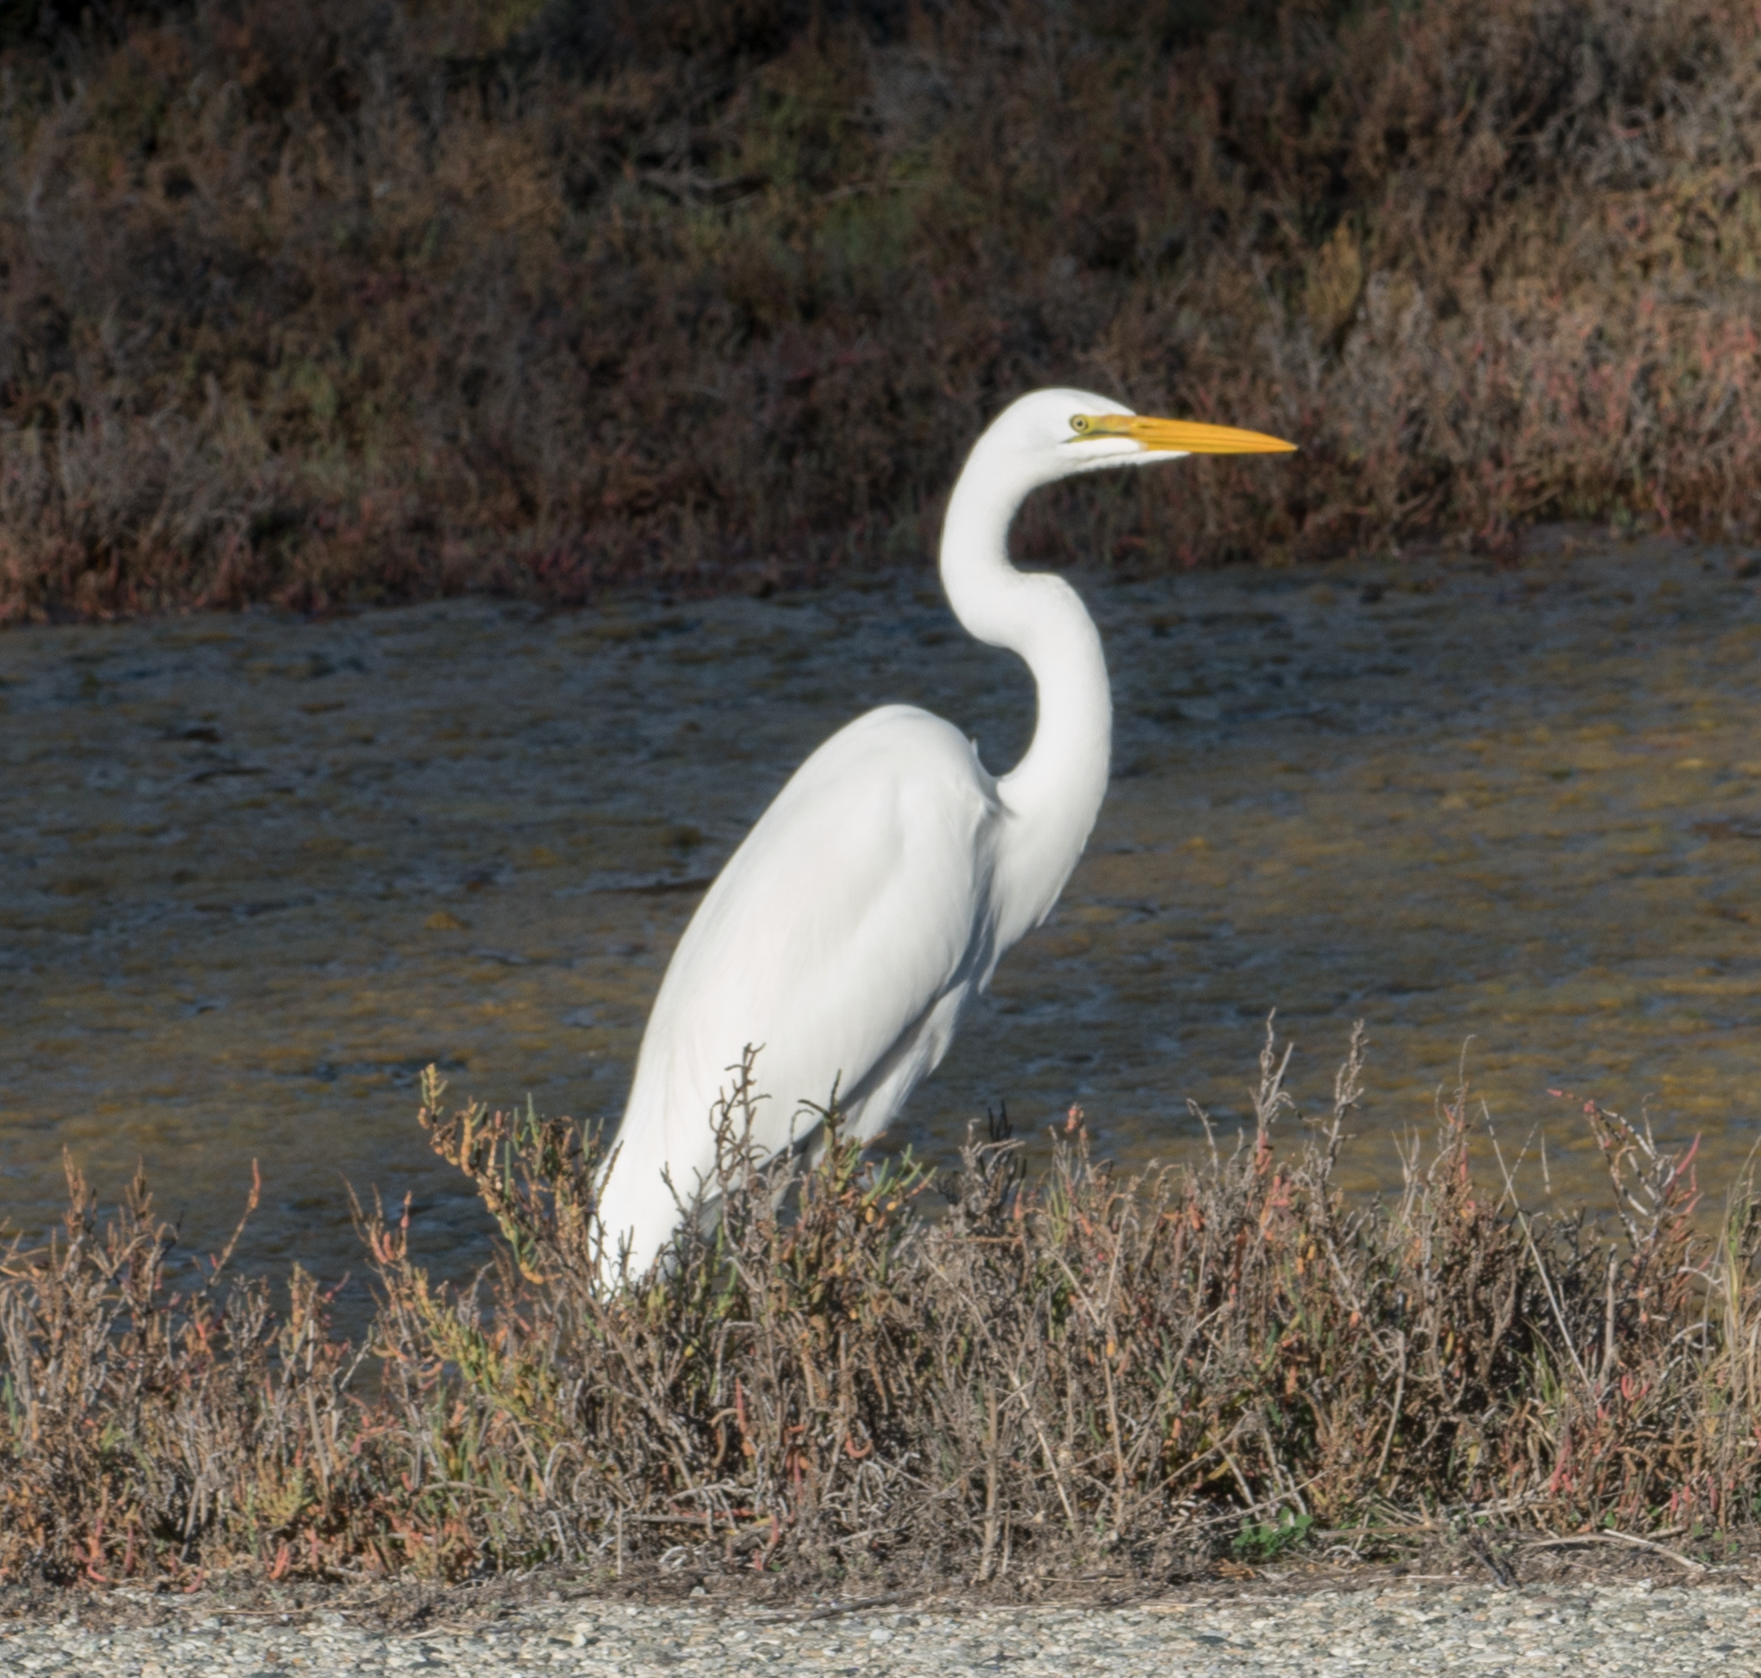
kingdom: Animalia
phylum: Chordata
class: Aves
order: Pelecaniformes
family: Ardeidae
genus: Ardea
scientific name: Ardea alba
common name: Great egret
